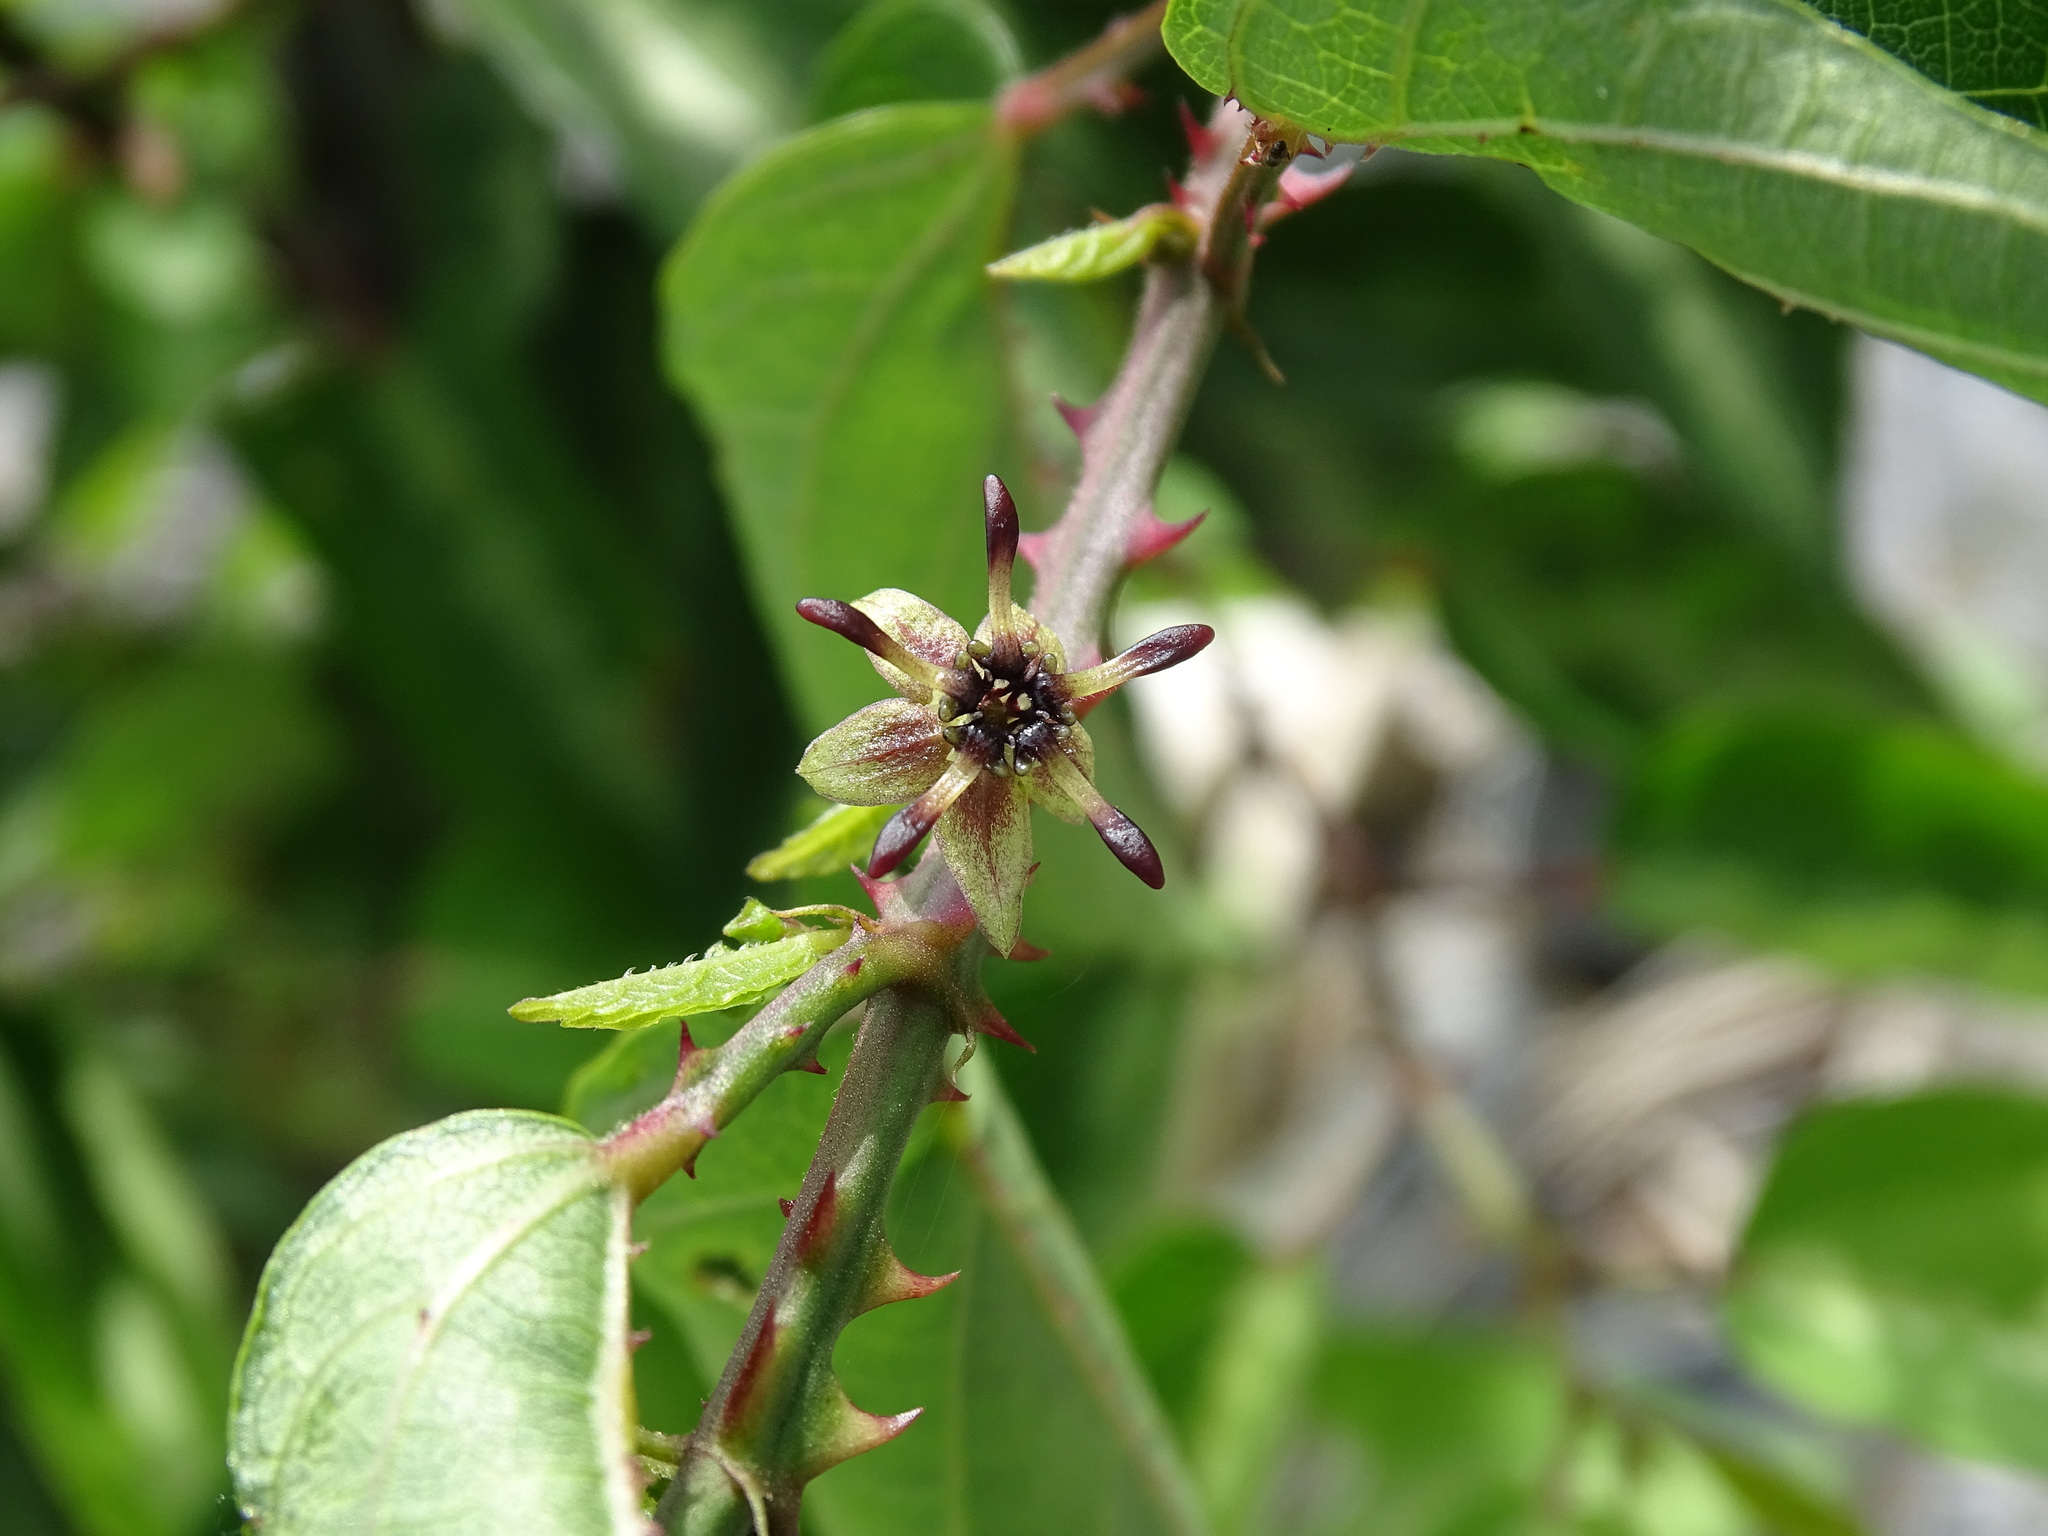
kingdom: Plantae
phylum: Tracheophyta
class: Magnoliopsida
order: Malvales
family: Malvaceae
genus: Byttneria
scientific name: Byttneria aculeata
